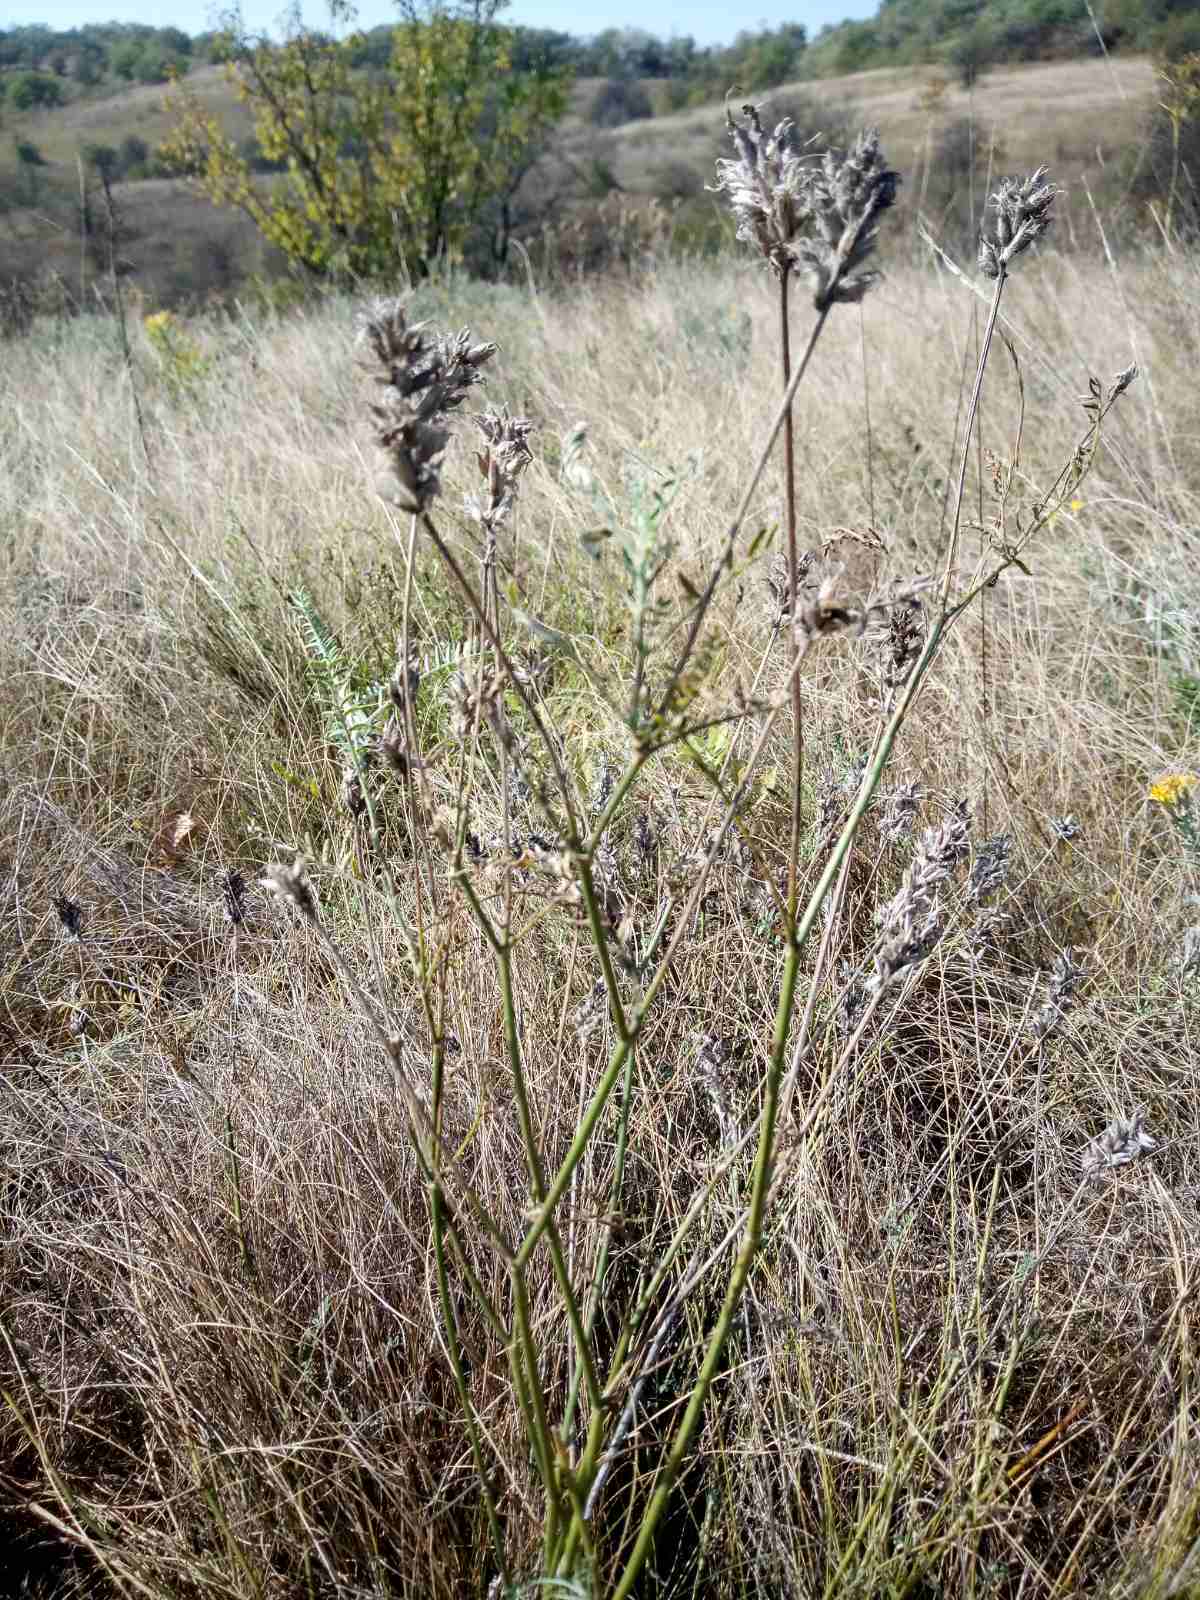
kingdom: Plantae
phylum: Tracheophyta
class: Magnoliopsida
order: Fabales
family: Fabaceae
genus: Astragalus
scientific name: Astragalus onobrychis
